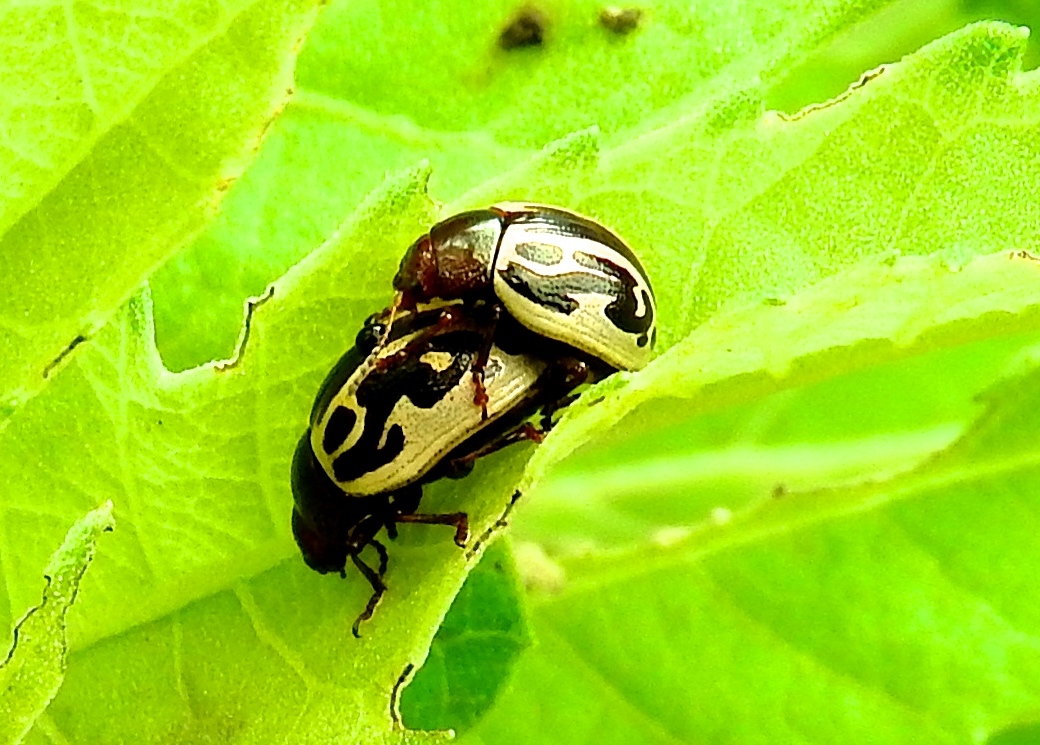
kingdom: Animalia
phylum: Arthropoda
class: Insecta
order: Coleoptera
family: Chrysomelidae
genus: Zygogramma
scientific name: Zygogramma
